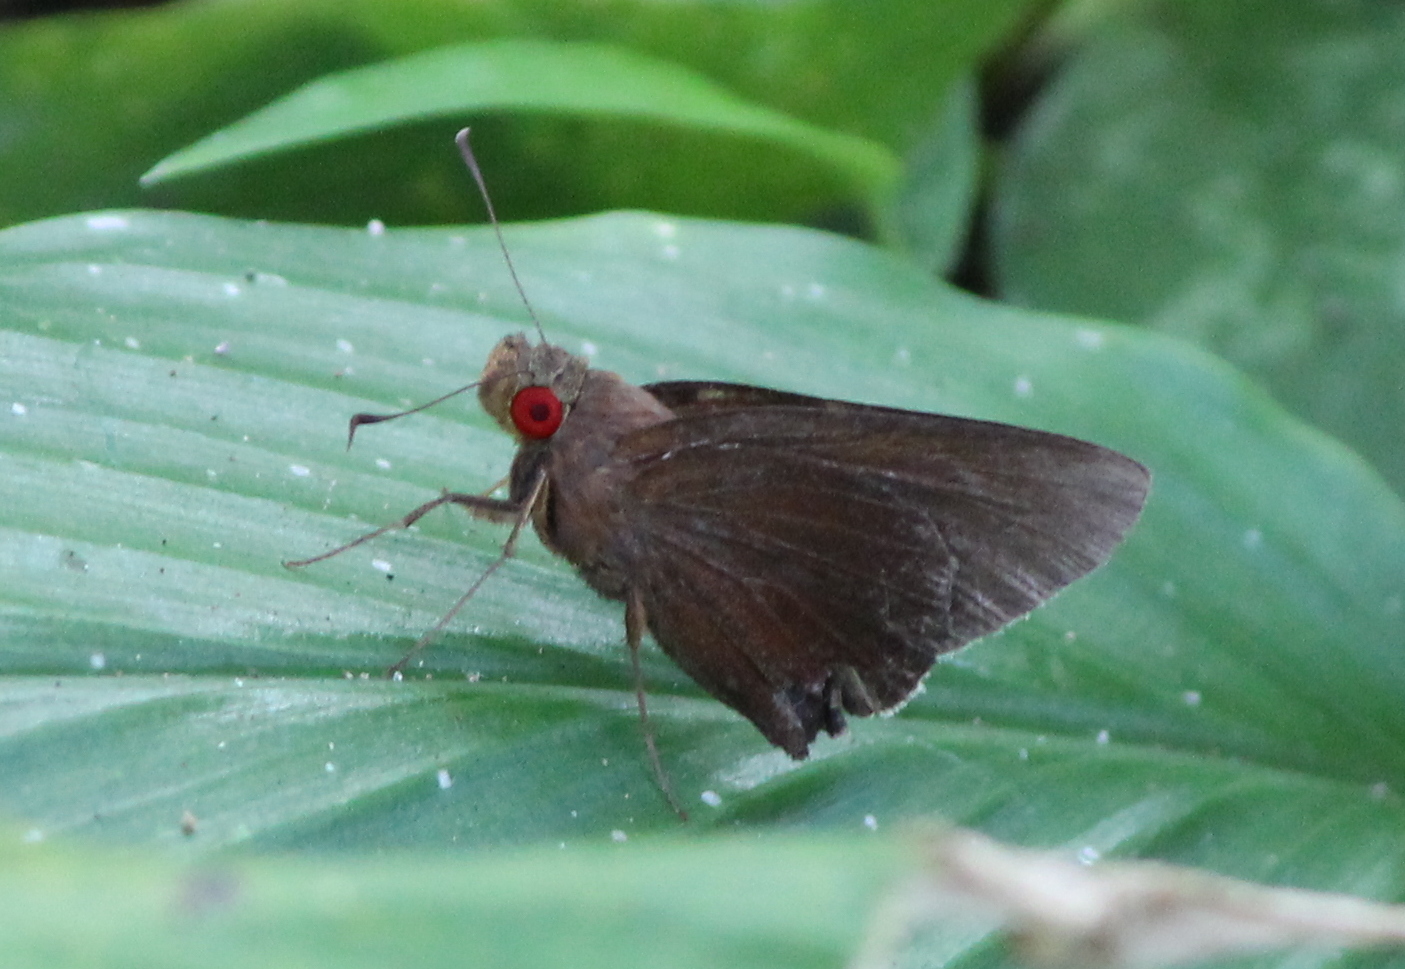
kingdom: Animalia
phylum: Arthropoda
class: Insecta
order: Lepidoptera
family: Hesperiidae
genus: Matapa
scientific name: Matapa aria
